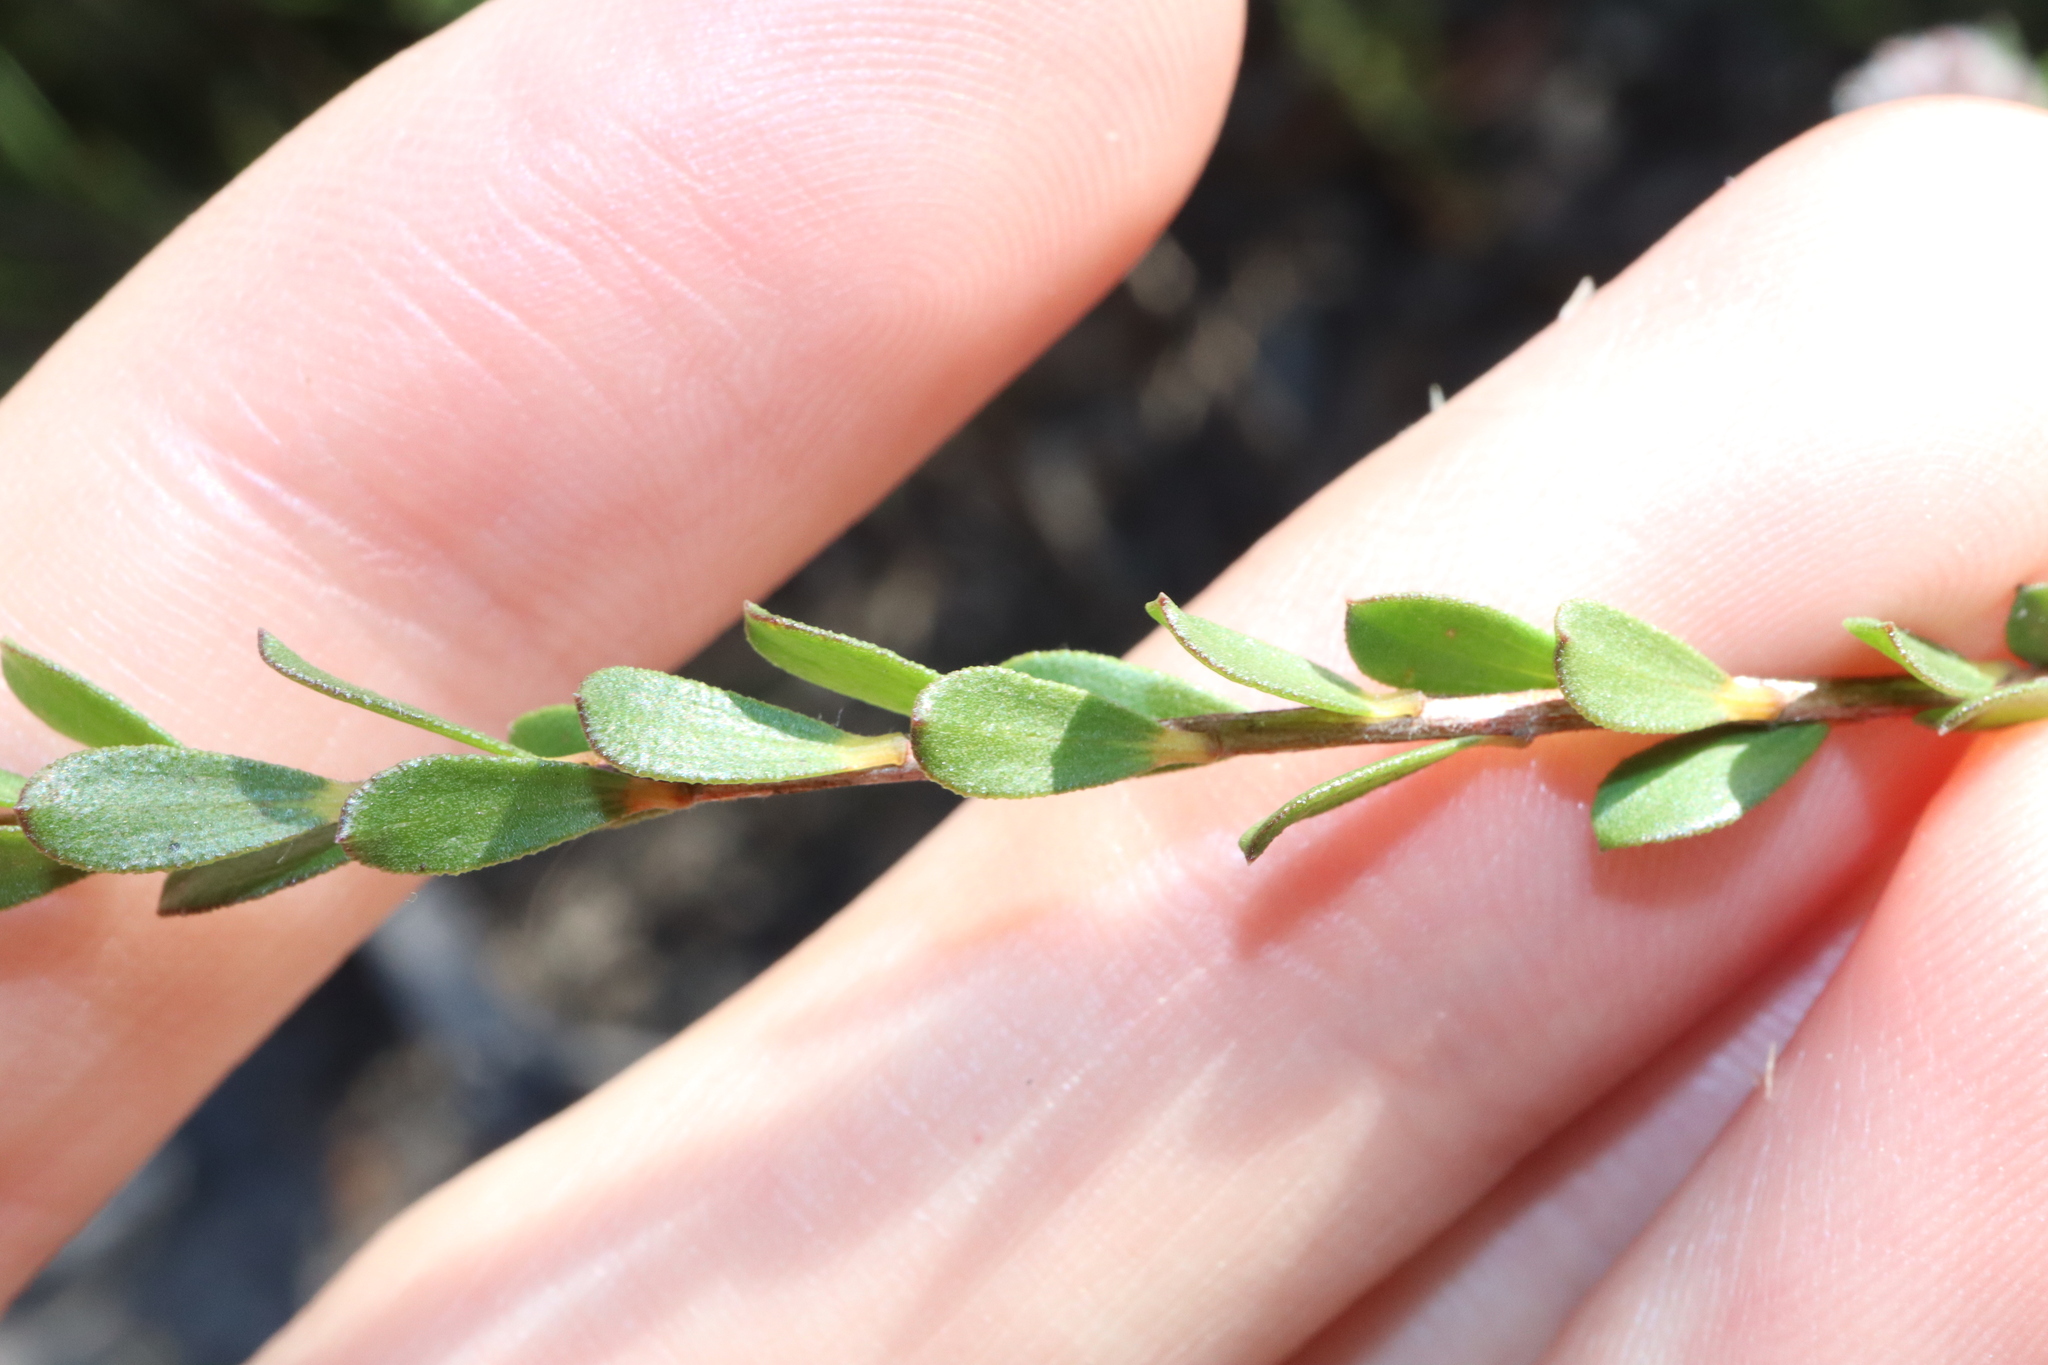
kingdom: Plantae
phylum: Tracheophyta
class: Magnoliopsida
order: Myrtales
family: Myrtaceae
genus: Kunzea
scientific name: Kunzea capitata
